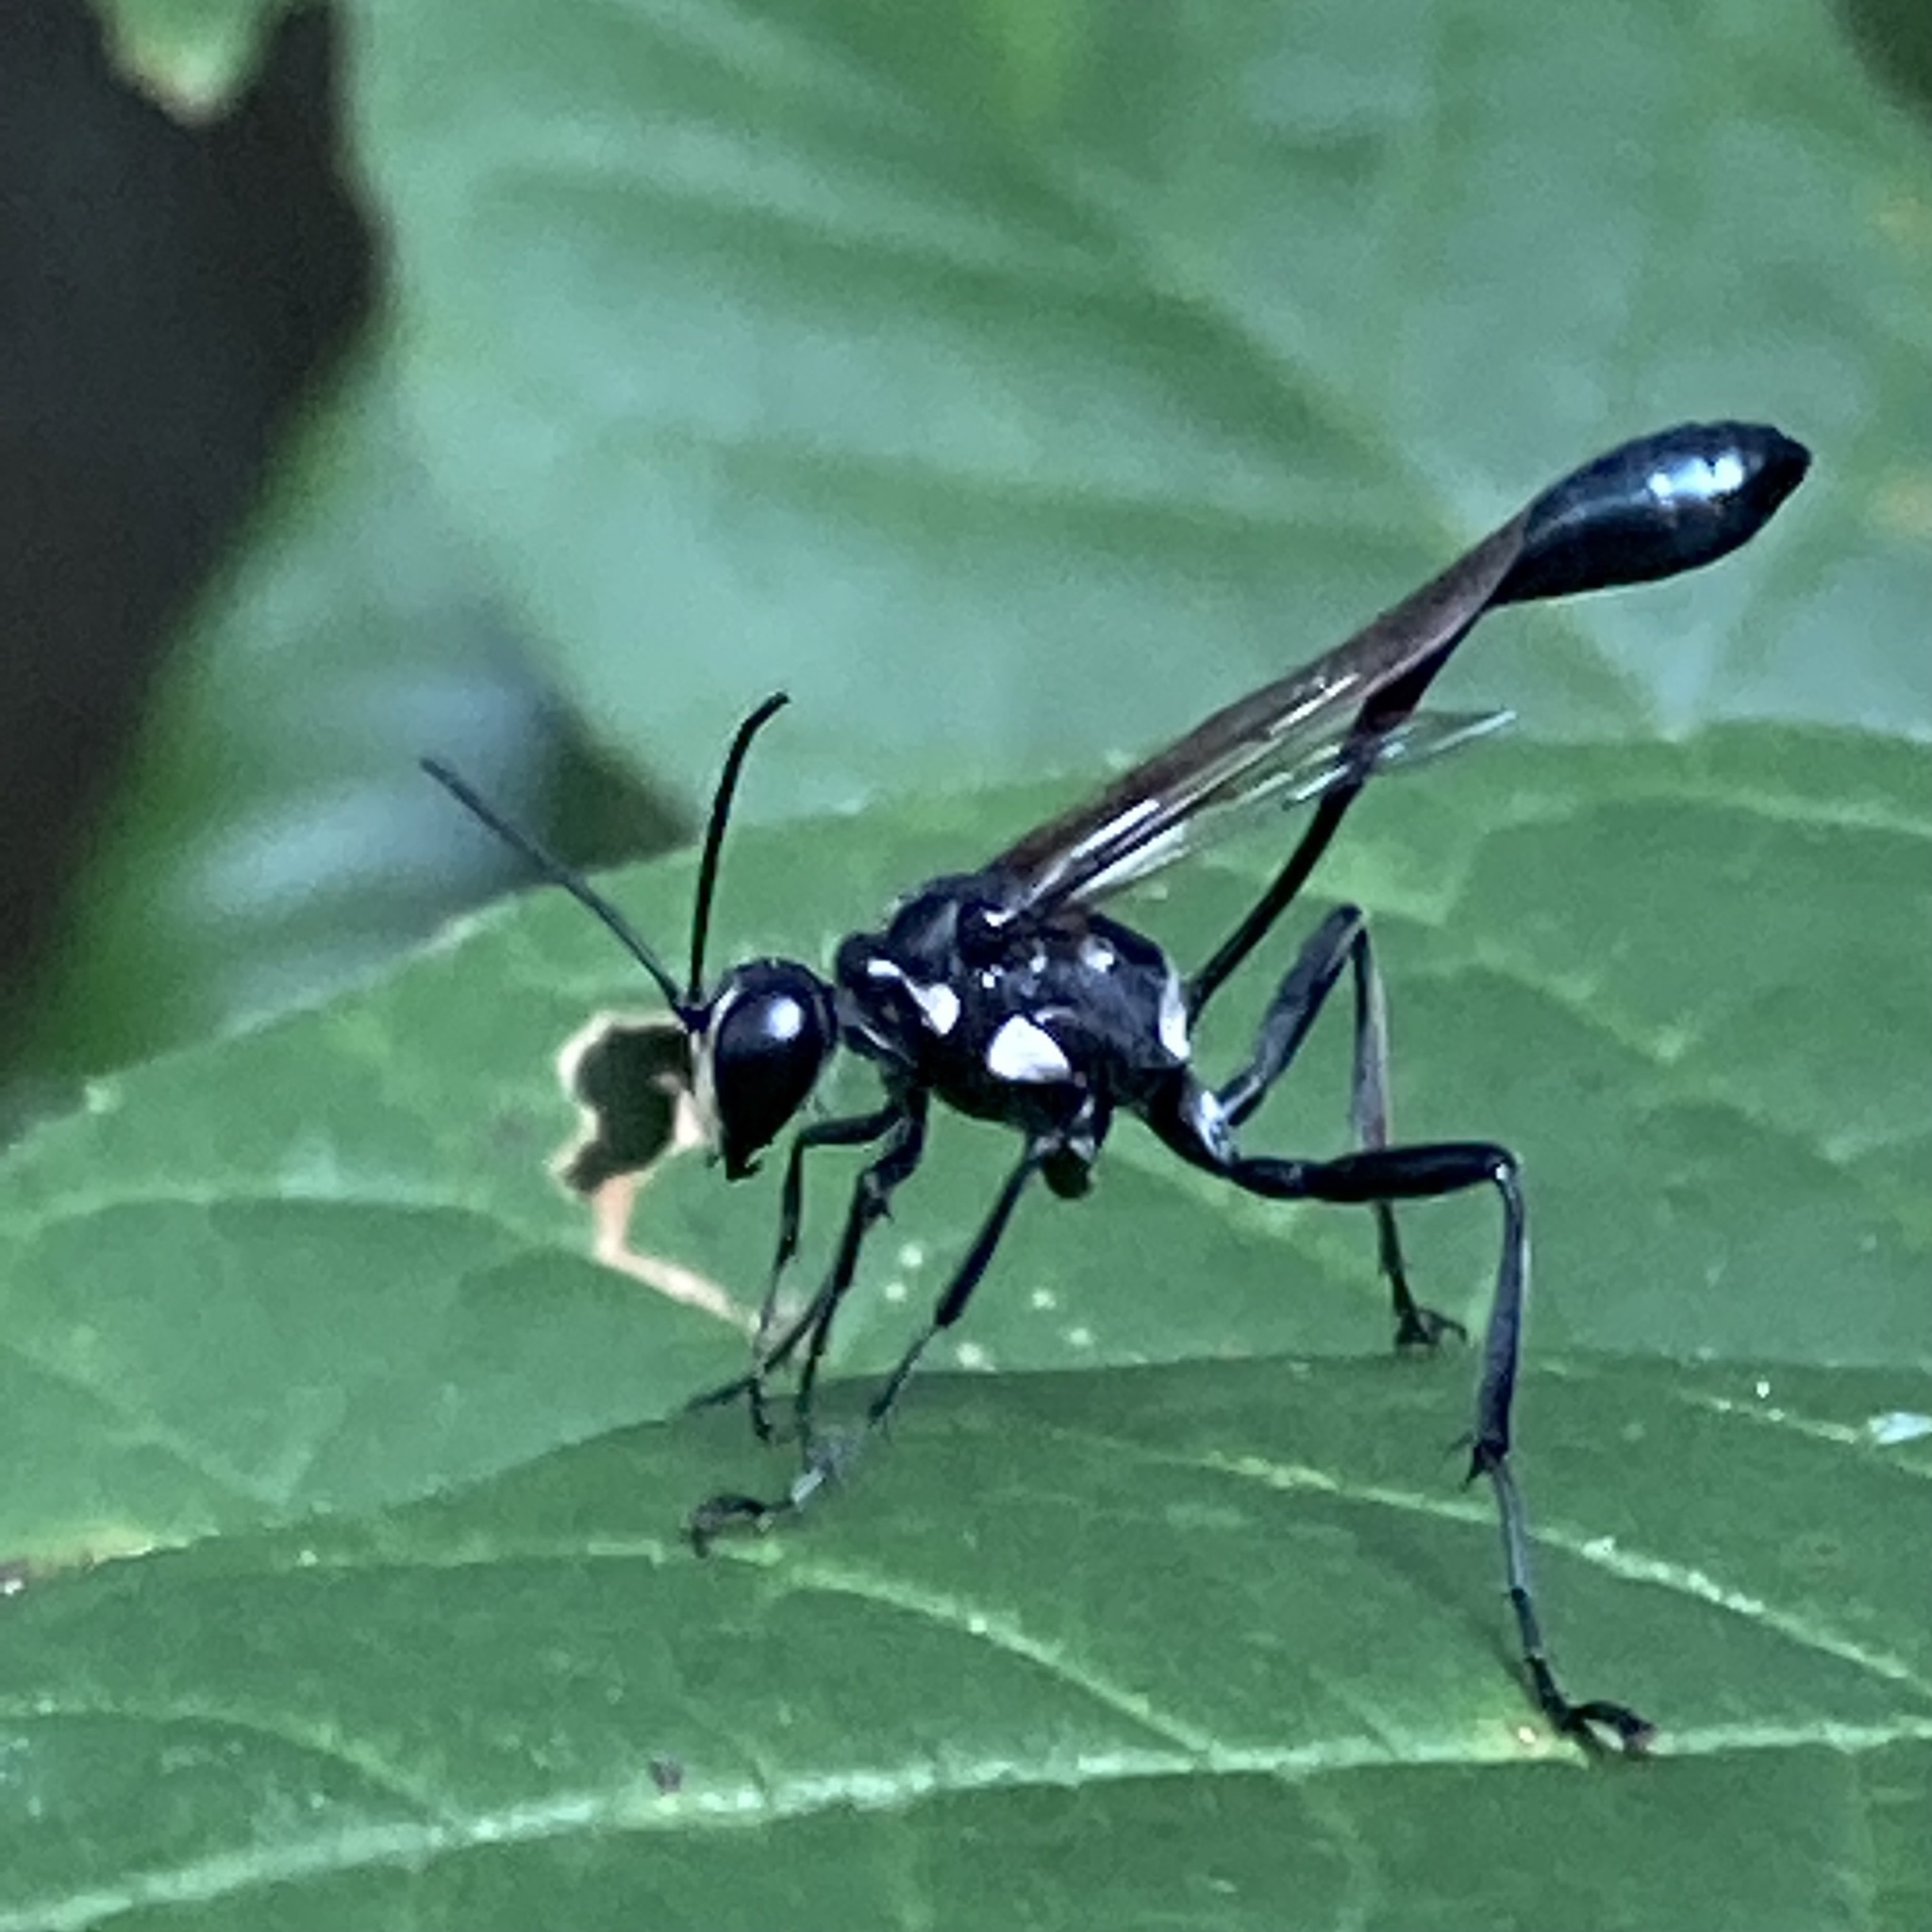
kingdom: Animalia
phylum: Arthropoda
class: Insecta
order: Hymenoptera
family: Sphecidae
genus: Eremnophila
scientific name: Eremnophila aureonotata
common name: Gold-marked thread-waisted wasp
